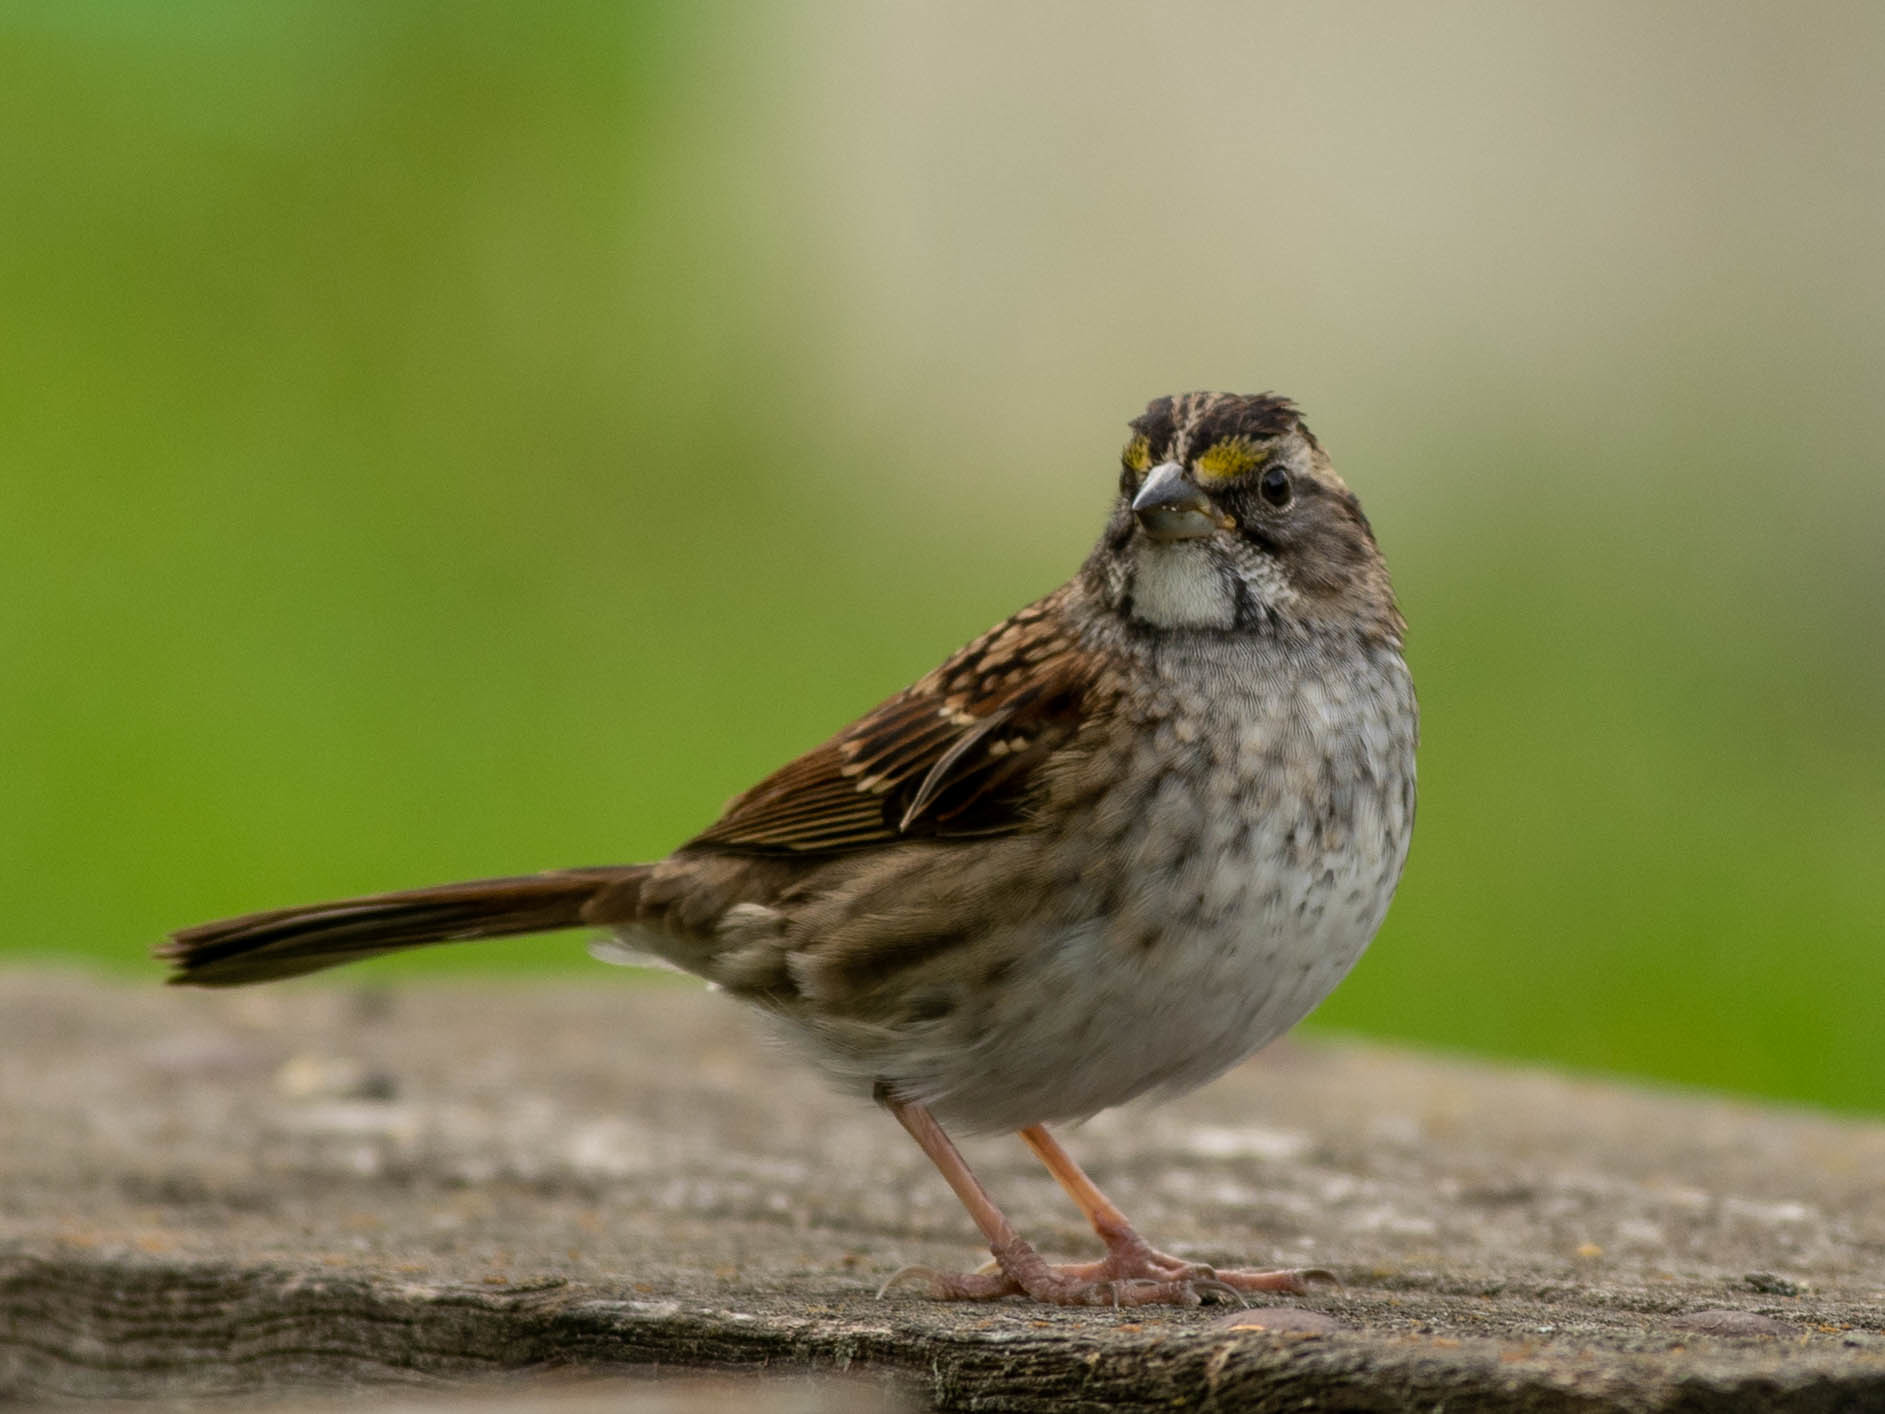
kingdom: Animalia
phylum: Chordata
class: Aves
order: Passeriformes
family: Passerellidae
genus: Zonotrichia
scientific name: Zonotrichia albicollis
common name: White-throated sparrow
